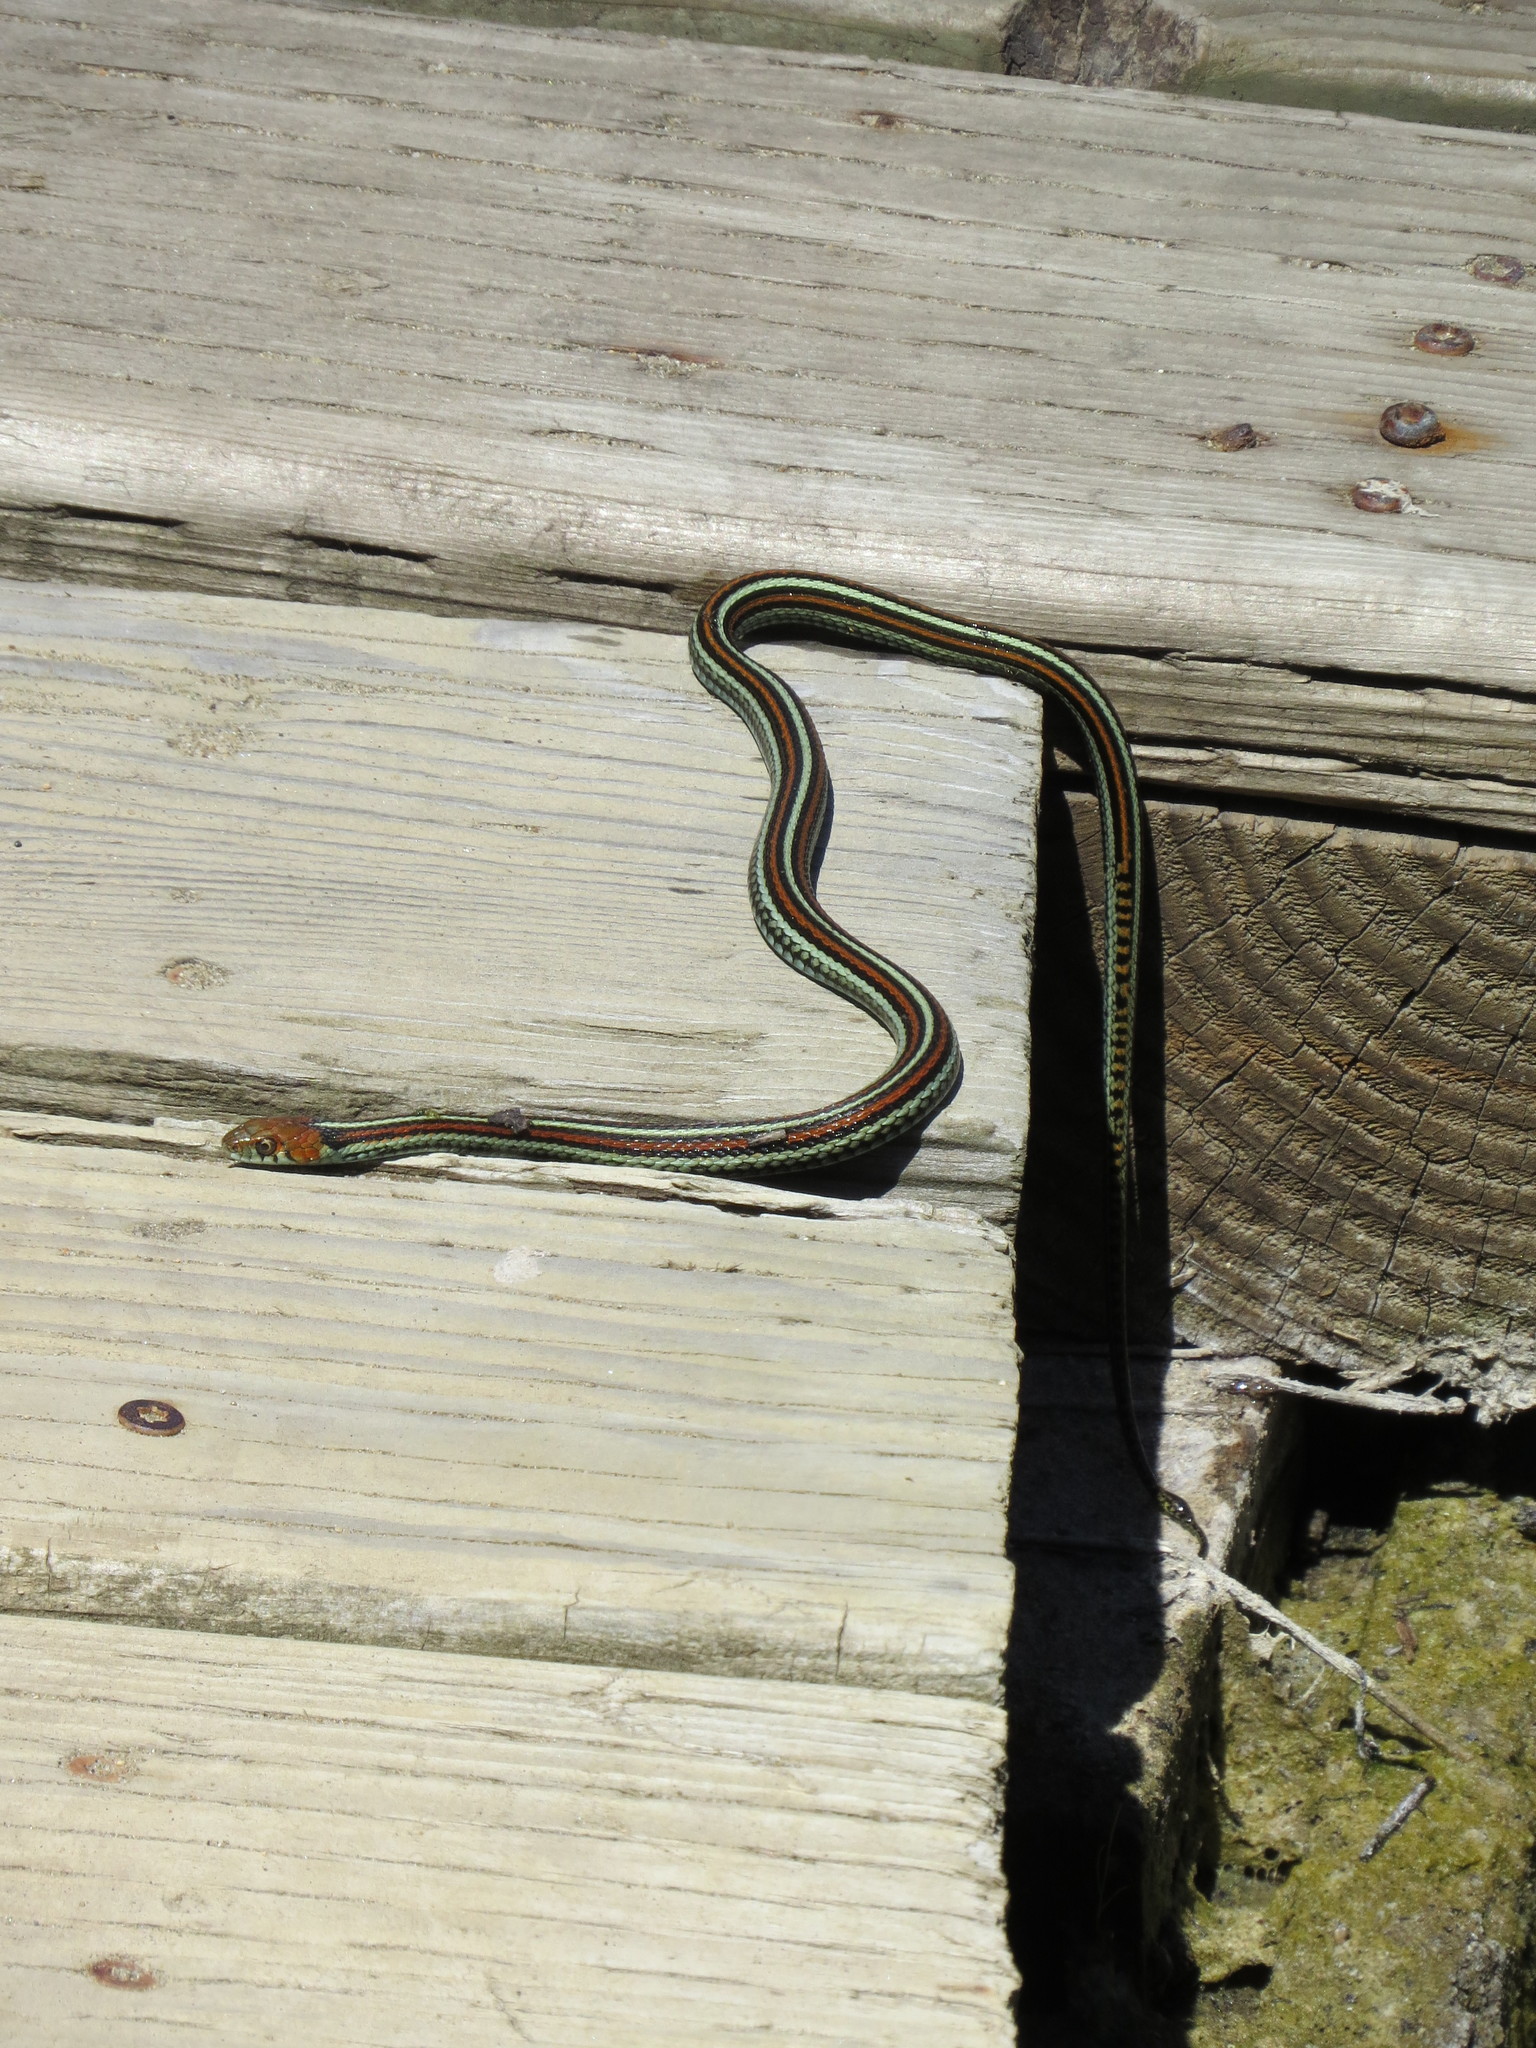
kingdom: Animalia
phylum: Chordata
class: Squamata
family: Colubridae
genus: Thamnophis
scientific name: Thamnophis sirtalis
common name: Common garter snake
